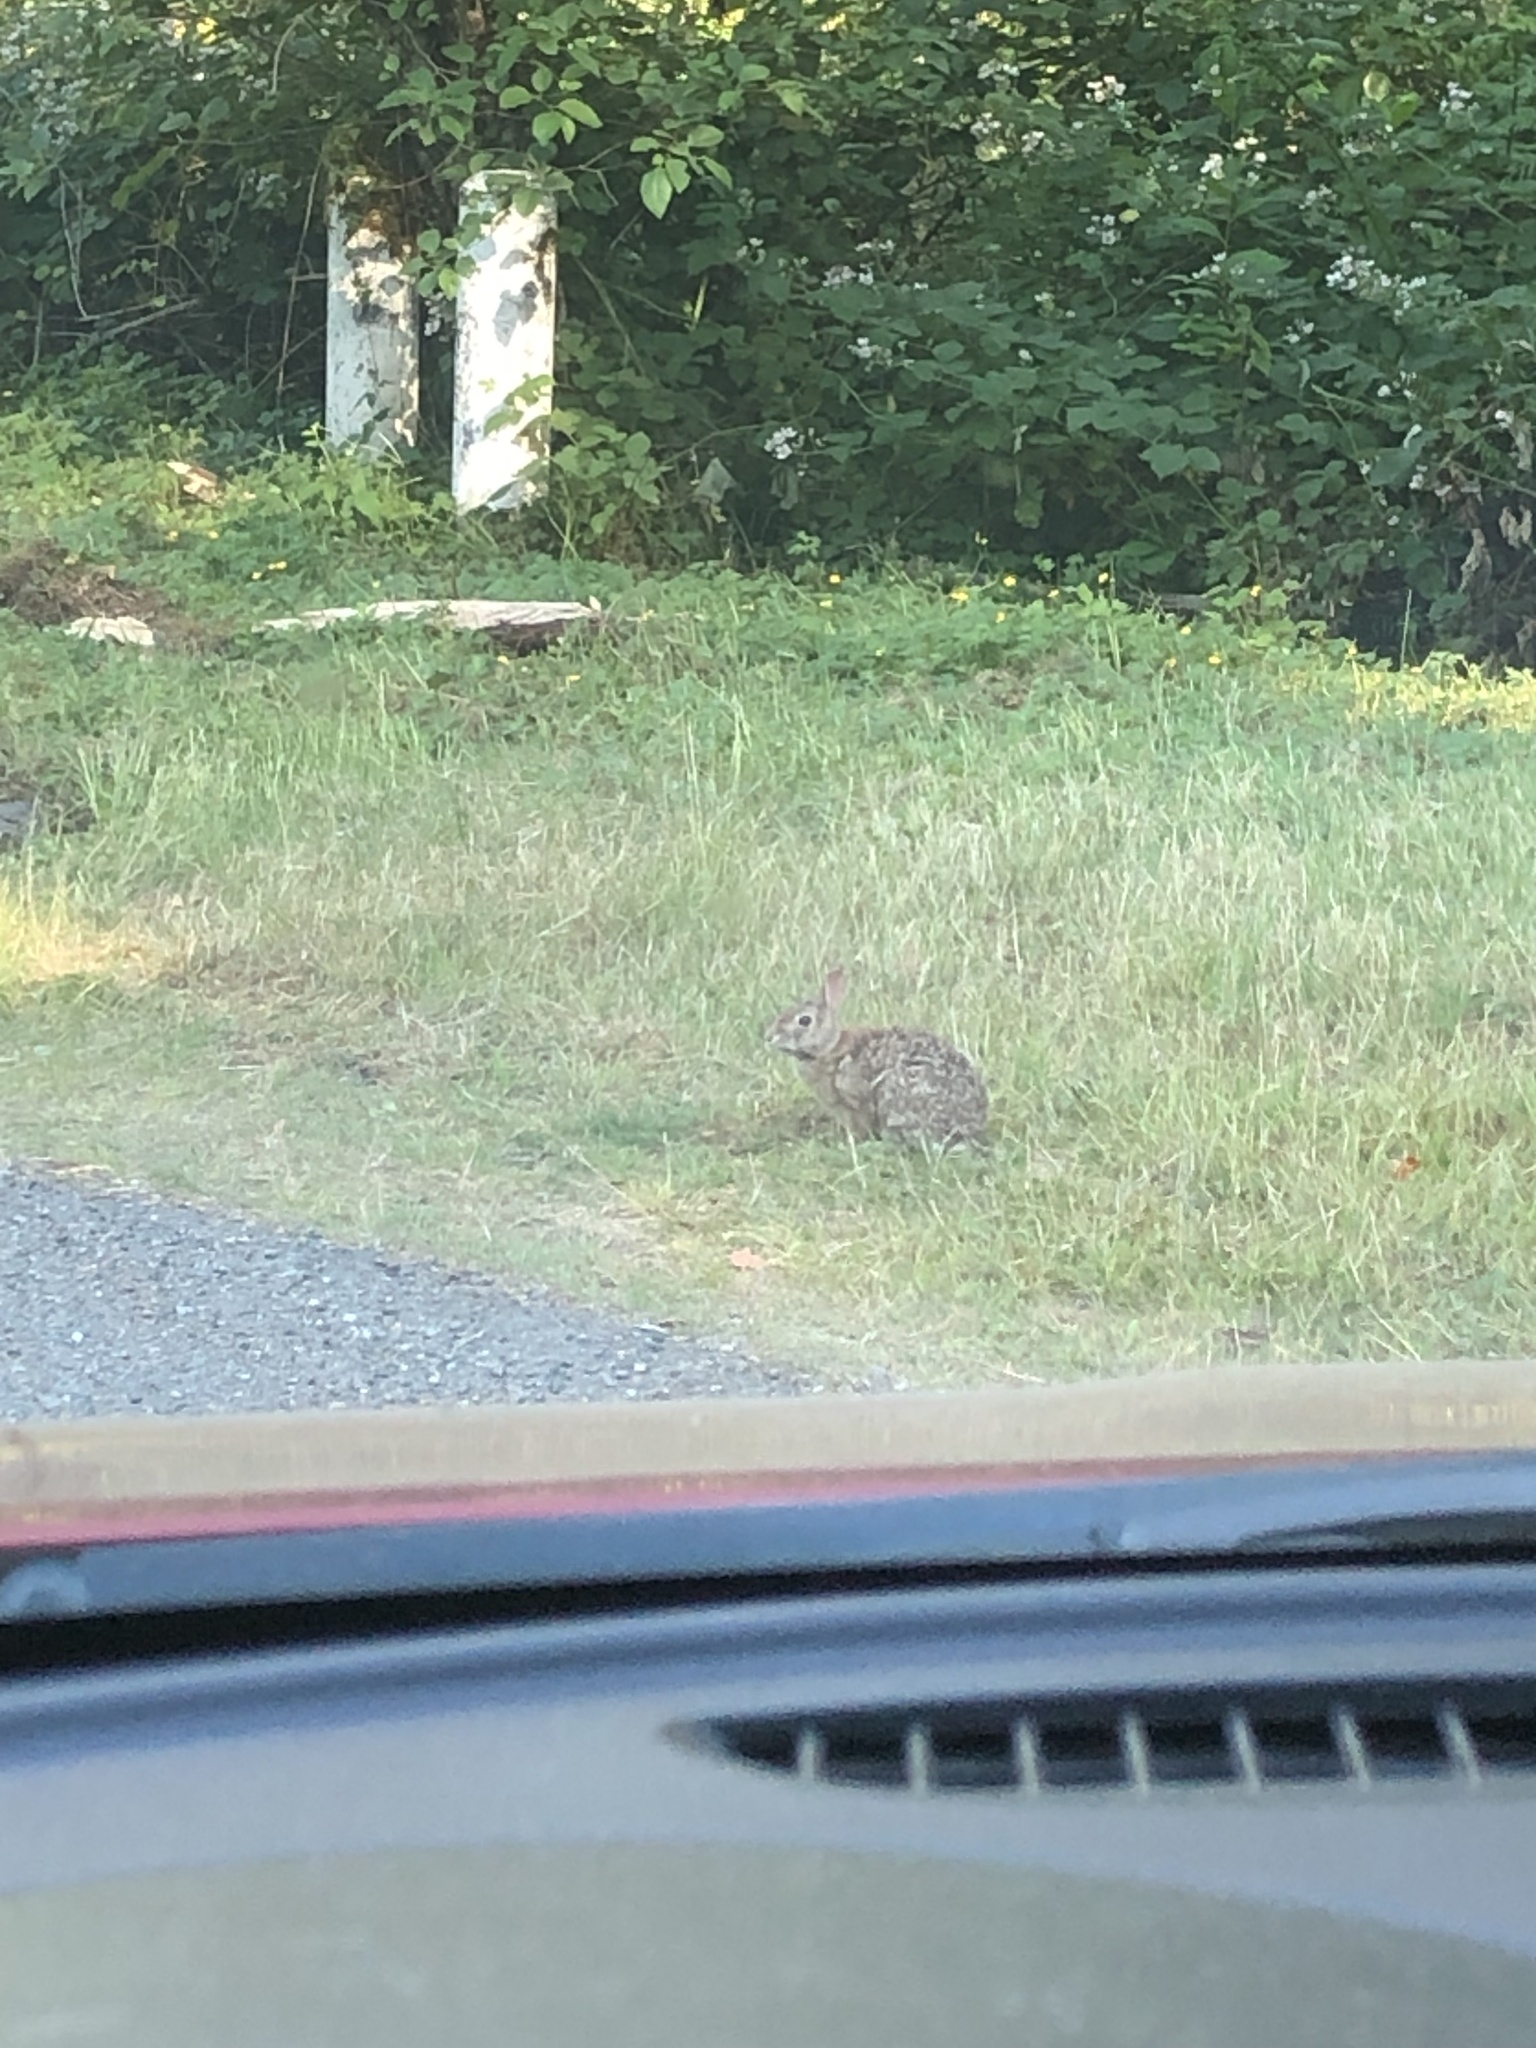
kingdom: Animalia
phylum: Chordata
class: Mammalia
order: Lagomorpha
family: Leporidae
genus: Sylvilagus
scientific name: Sylvilagus floridanus
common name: Eastern cottontail
